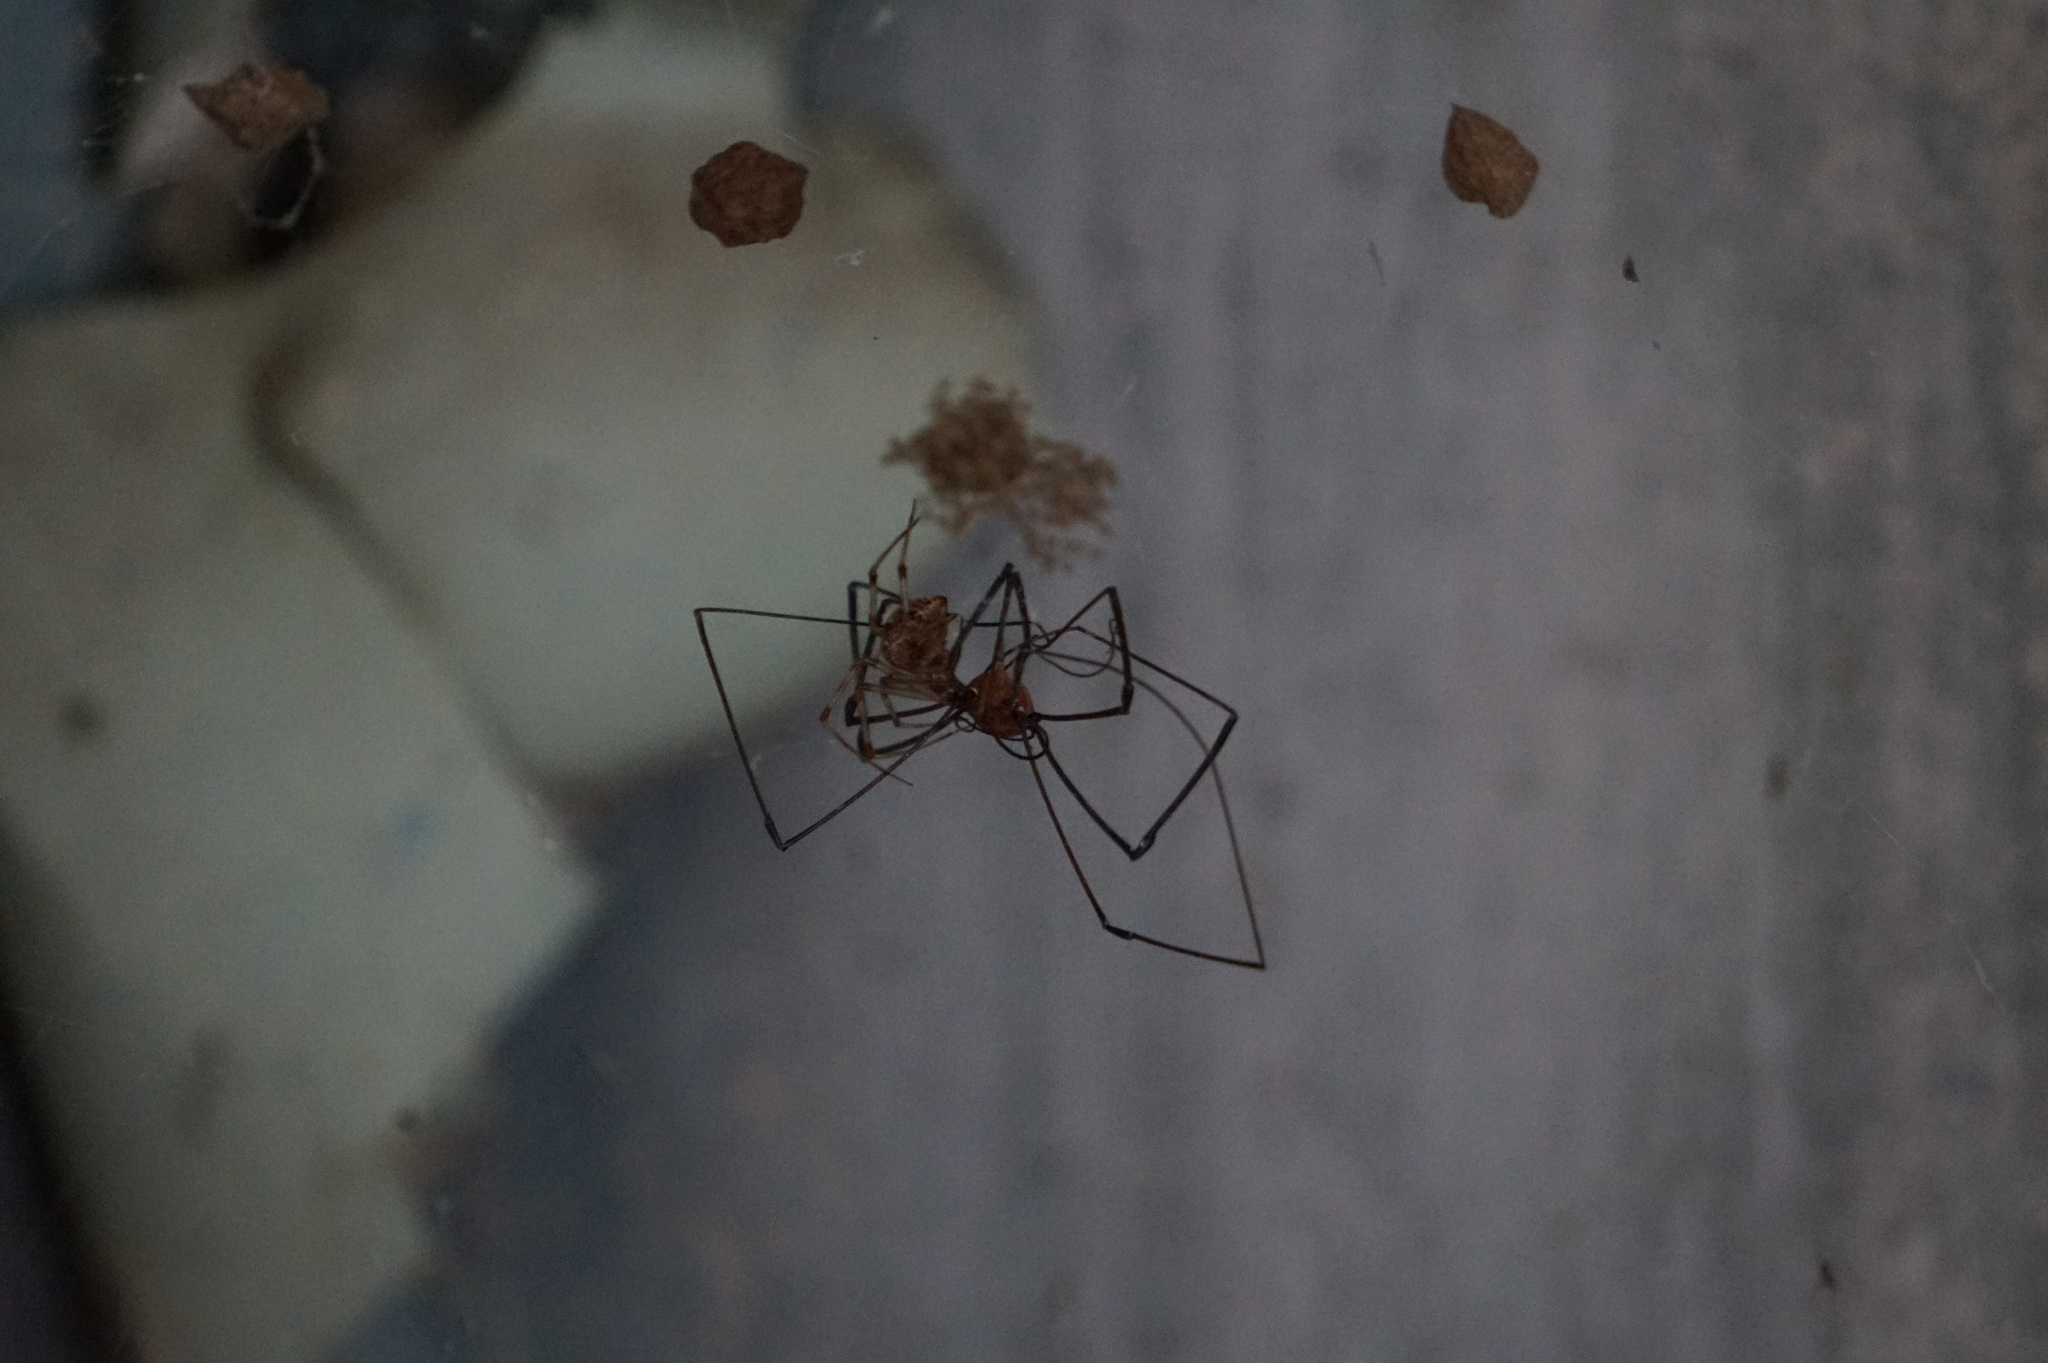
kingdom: Animalia
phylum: Arthropoda
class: Arachnida
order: Araneae
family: Theridiidae
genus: Parasteatoda
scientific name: Parasteatoda tepidariorum
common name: Common house spider
